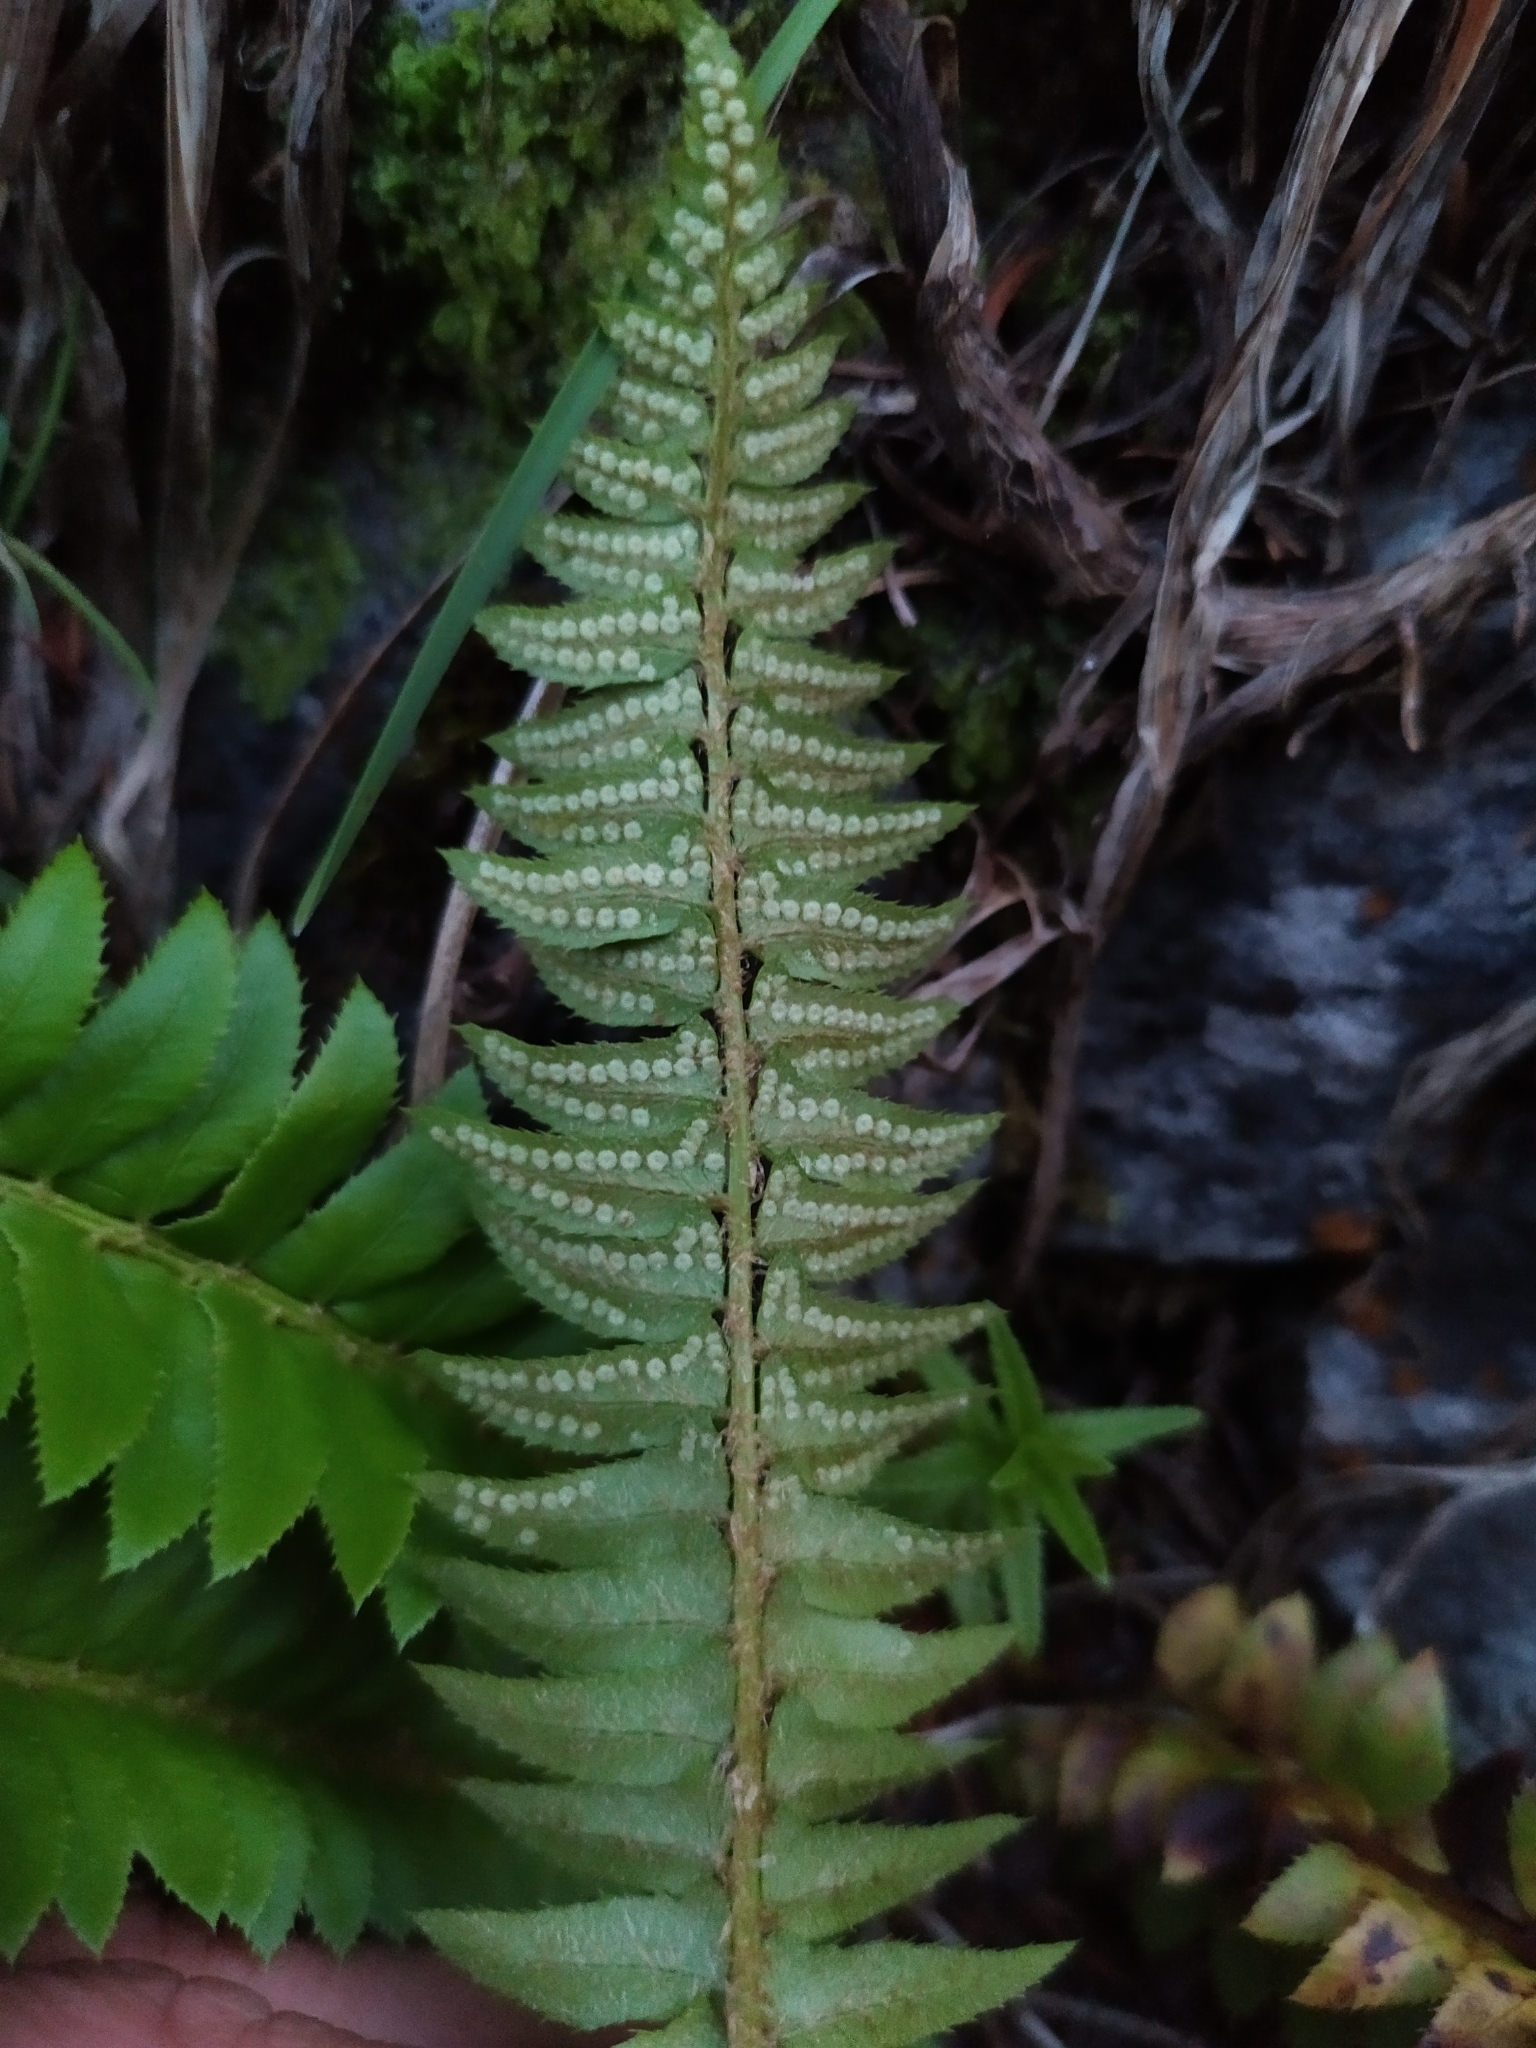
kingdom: Plantae
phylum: Tracheophyta
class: Polypodiopsida
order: Polypodiales
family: Dryopteridaceae
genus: Polystichum
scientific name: Polystichum lonchitis
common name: Holly fern
